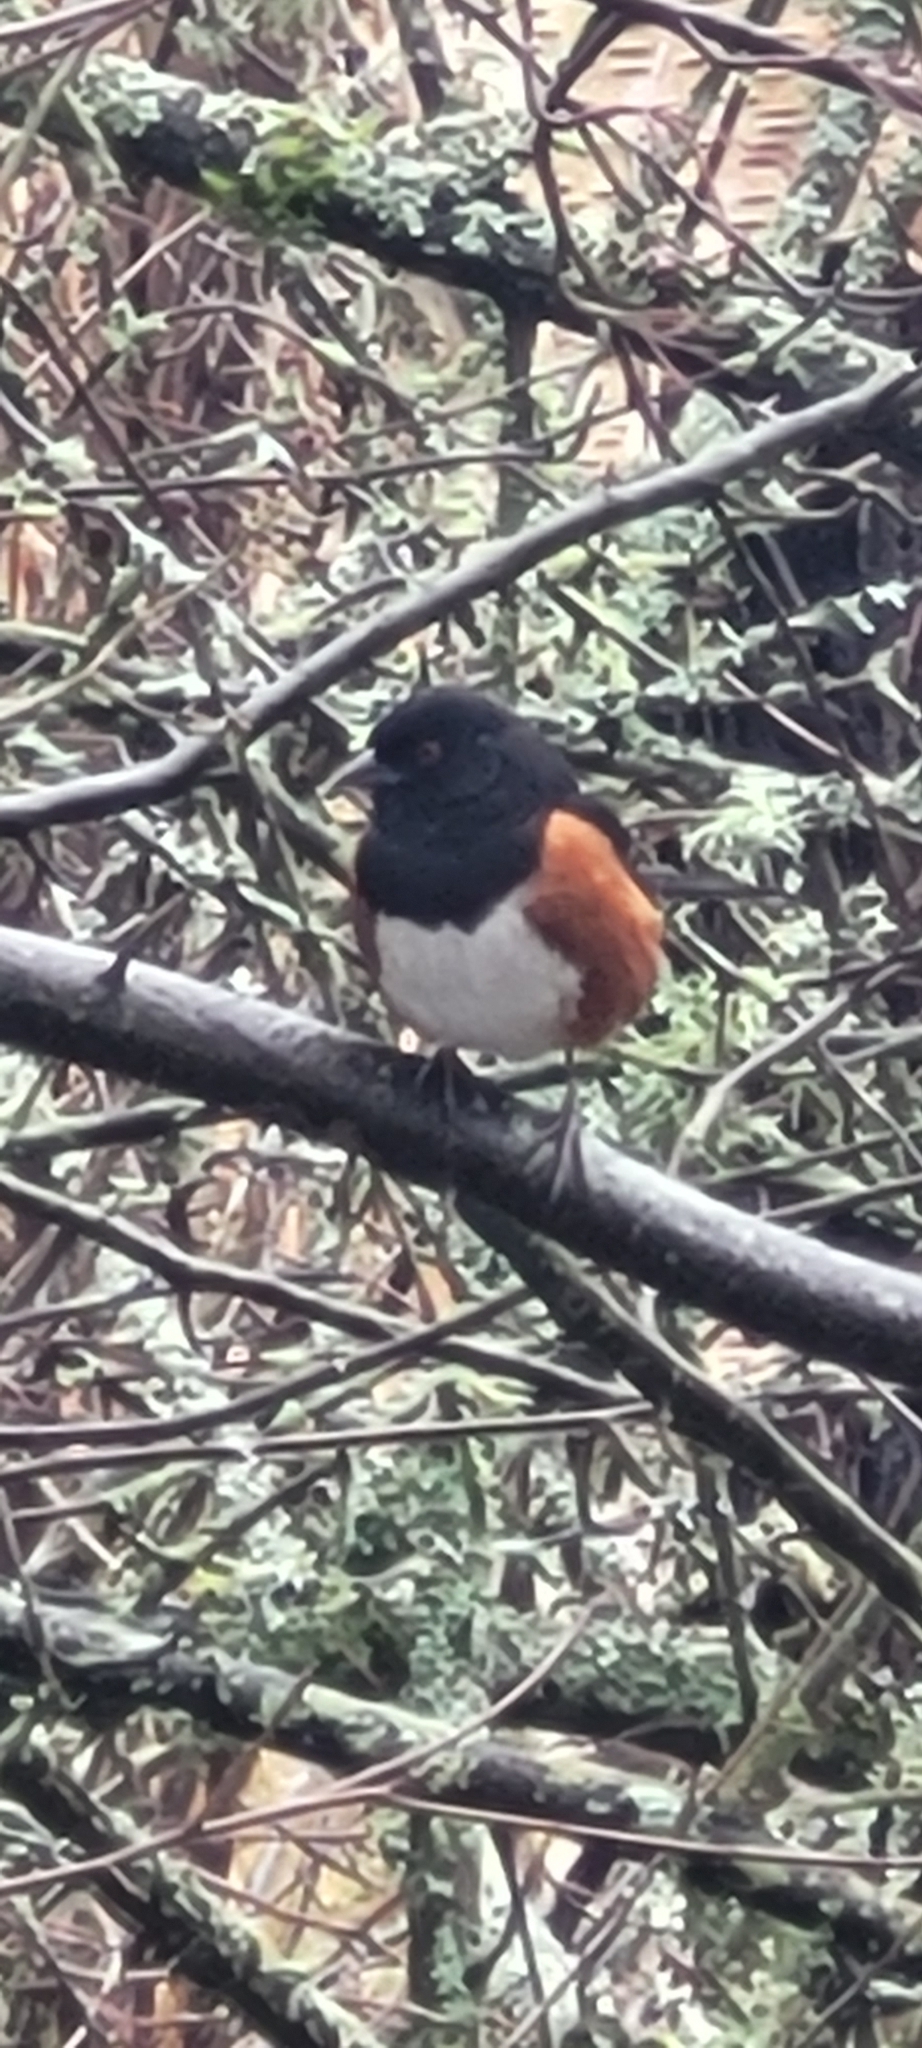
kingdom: Animalia
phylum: Chordata
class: Aves
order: Passeriformes
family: Passerellidae
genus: Pipilo
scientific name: Pipilo maculatus
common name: Spotted towhee
